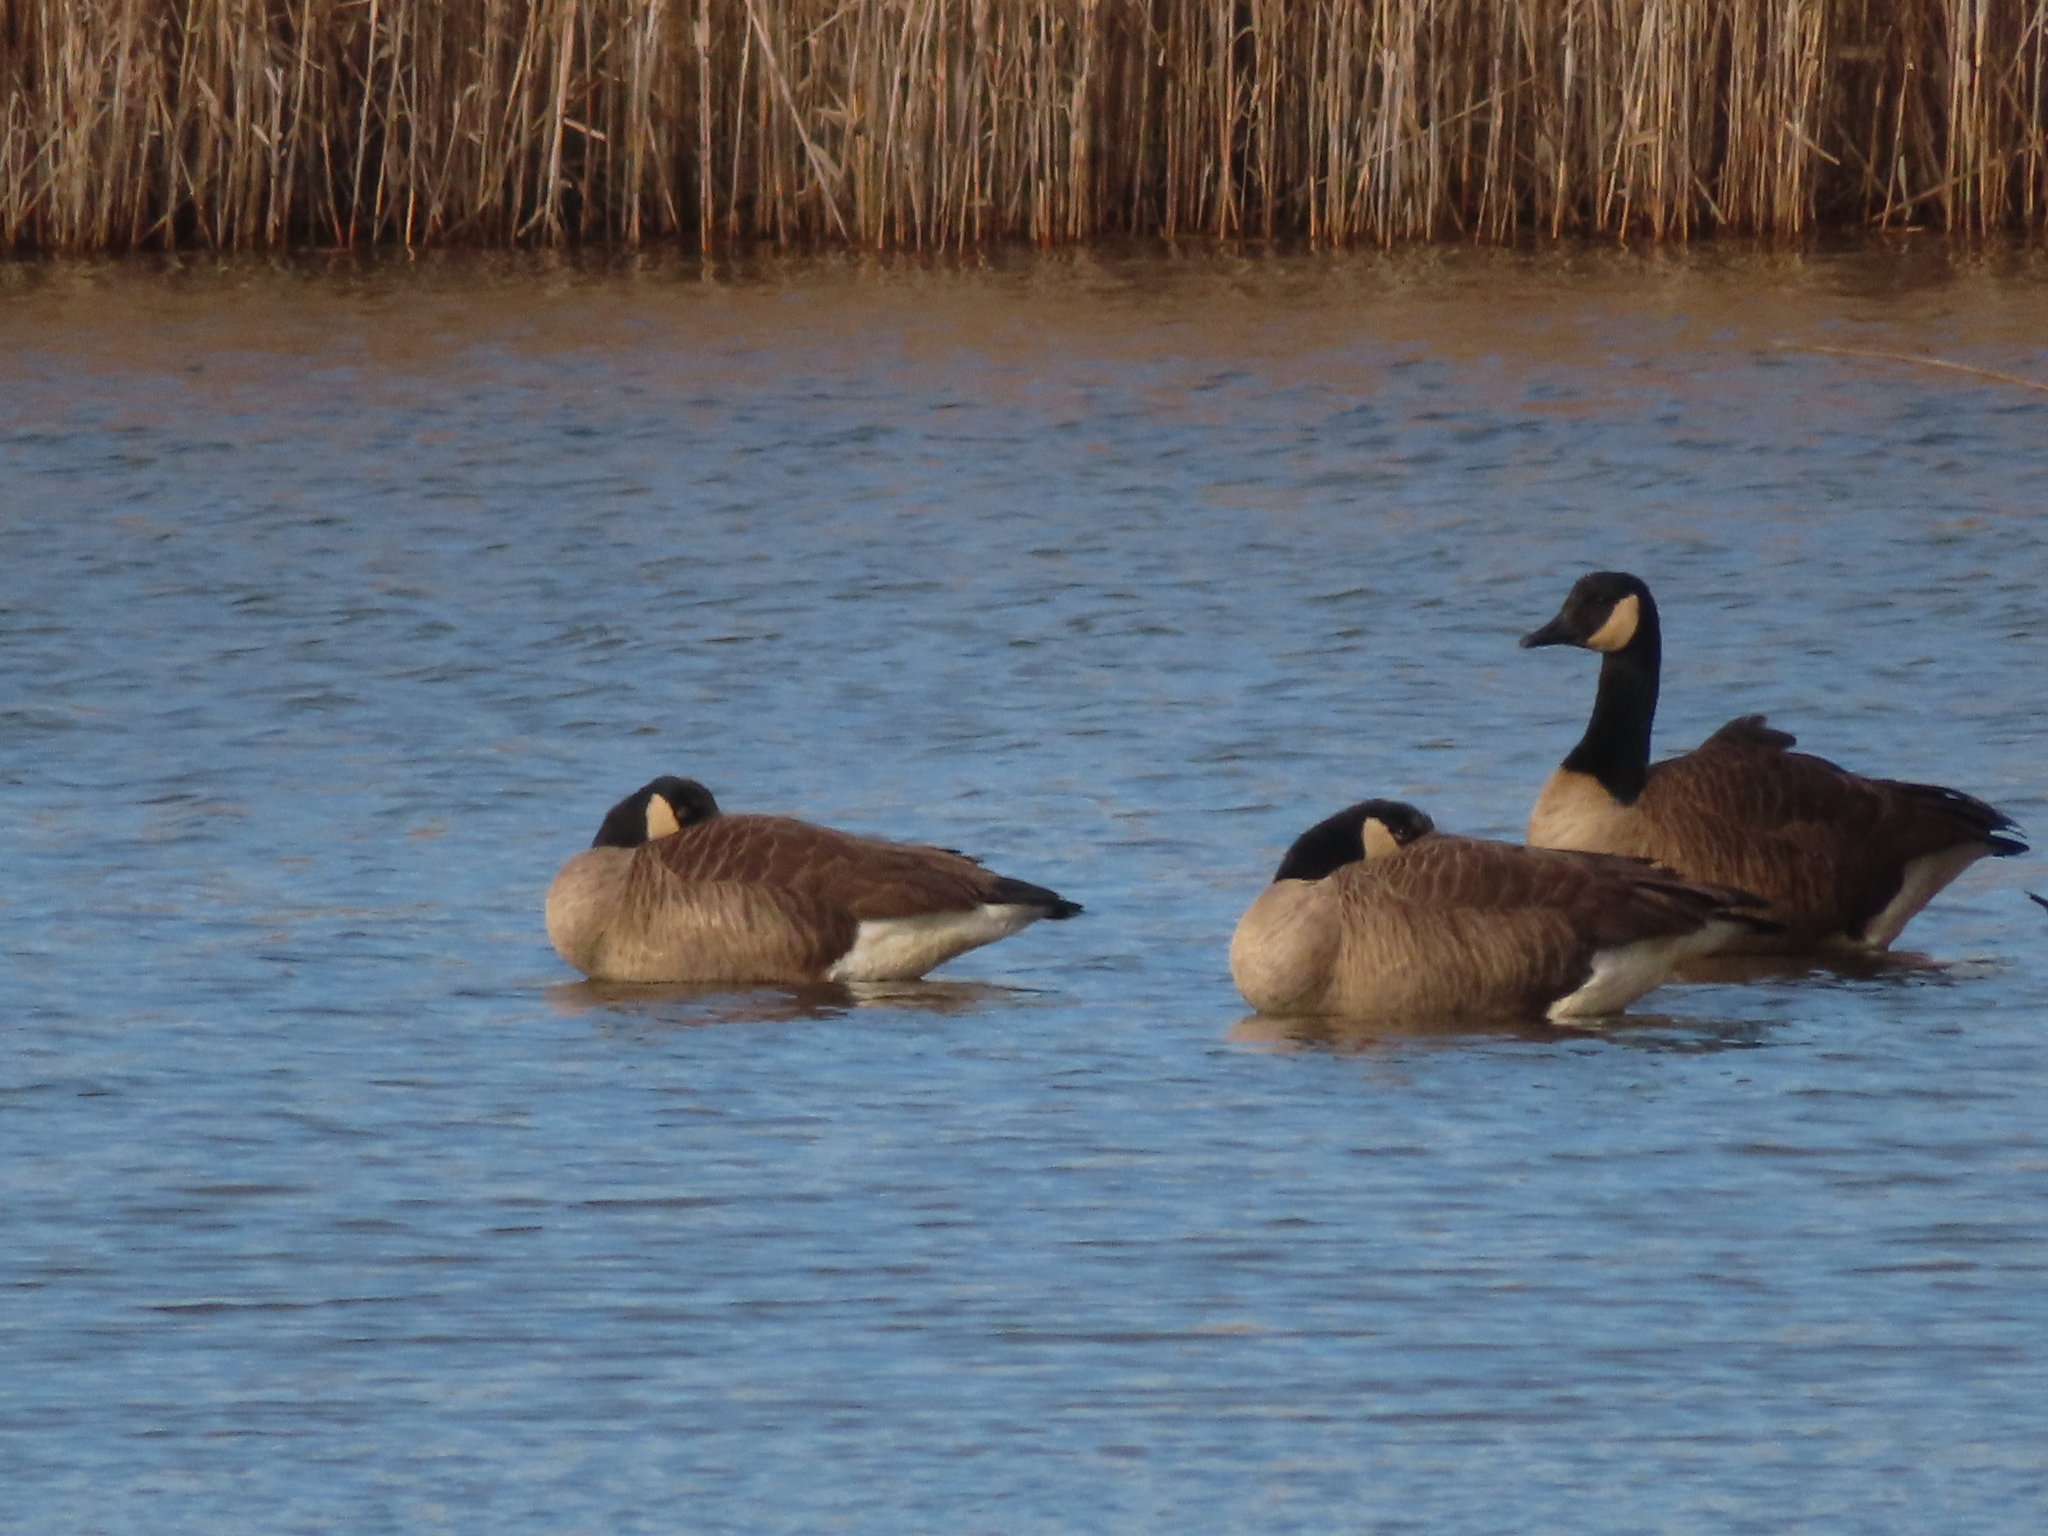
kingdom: Animalia
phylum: Chordata
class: Aves
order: Anseriformes
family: Anatidae
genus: Branta
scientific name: Branta canadensis
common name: Canada goose
